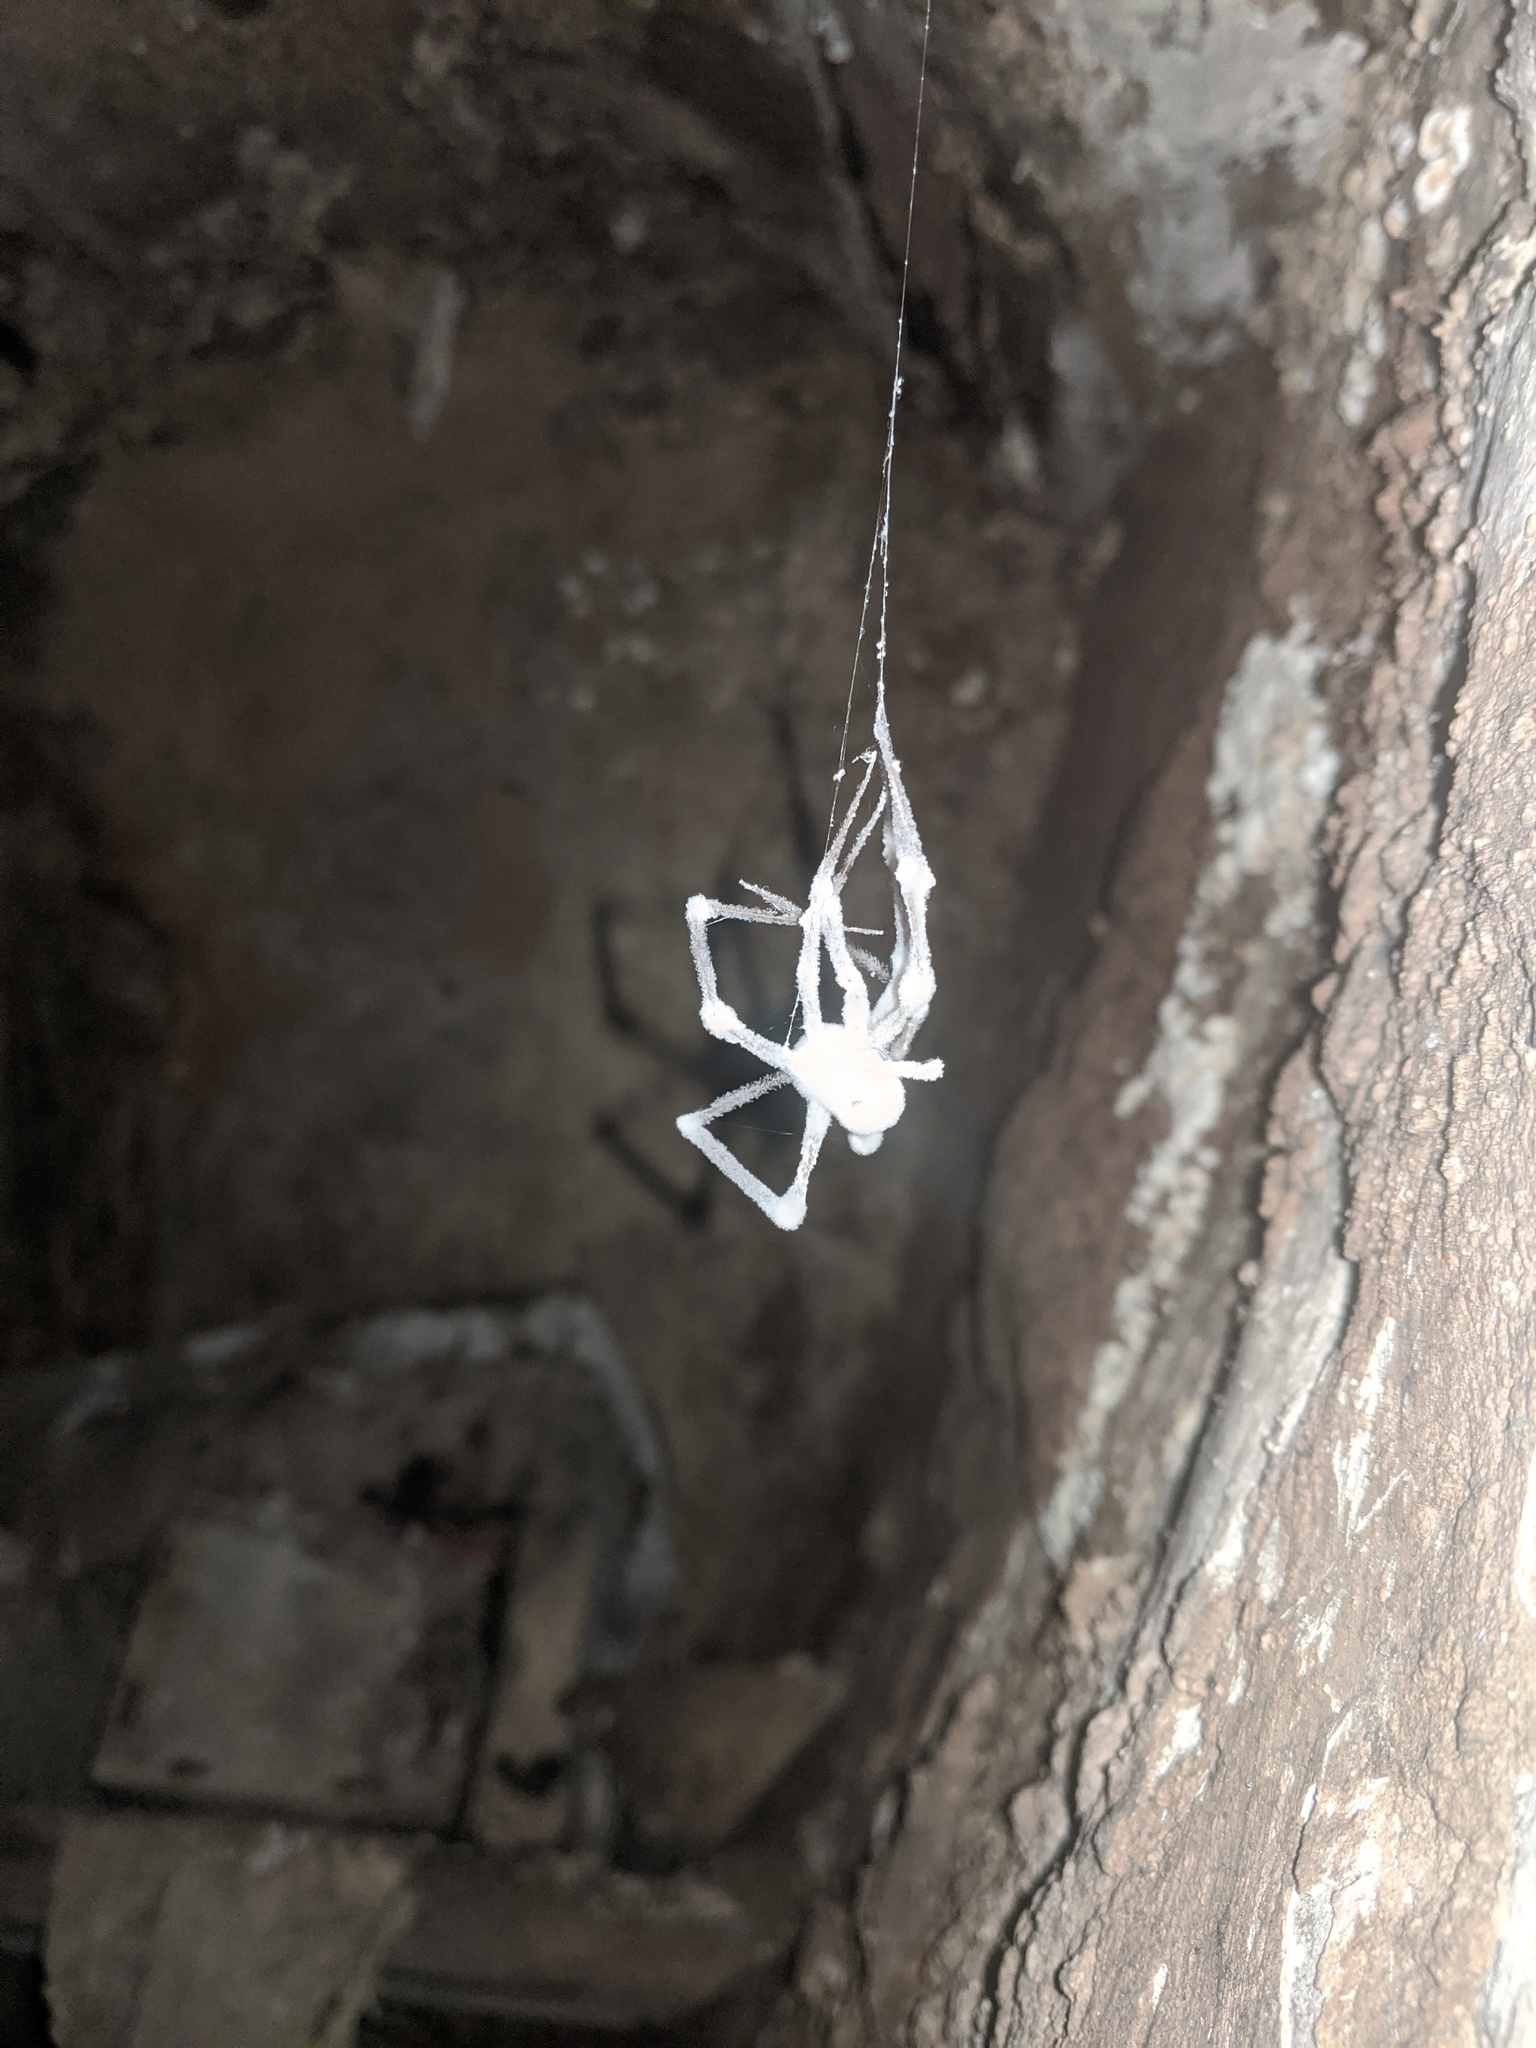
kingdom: Fungi
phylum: Ascomycota
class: Sordariomycetes
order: Hypocreales
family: Cordycipitaceae
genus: Lecanicillium
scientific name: Lecanicillium tenuipes
